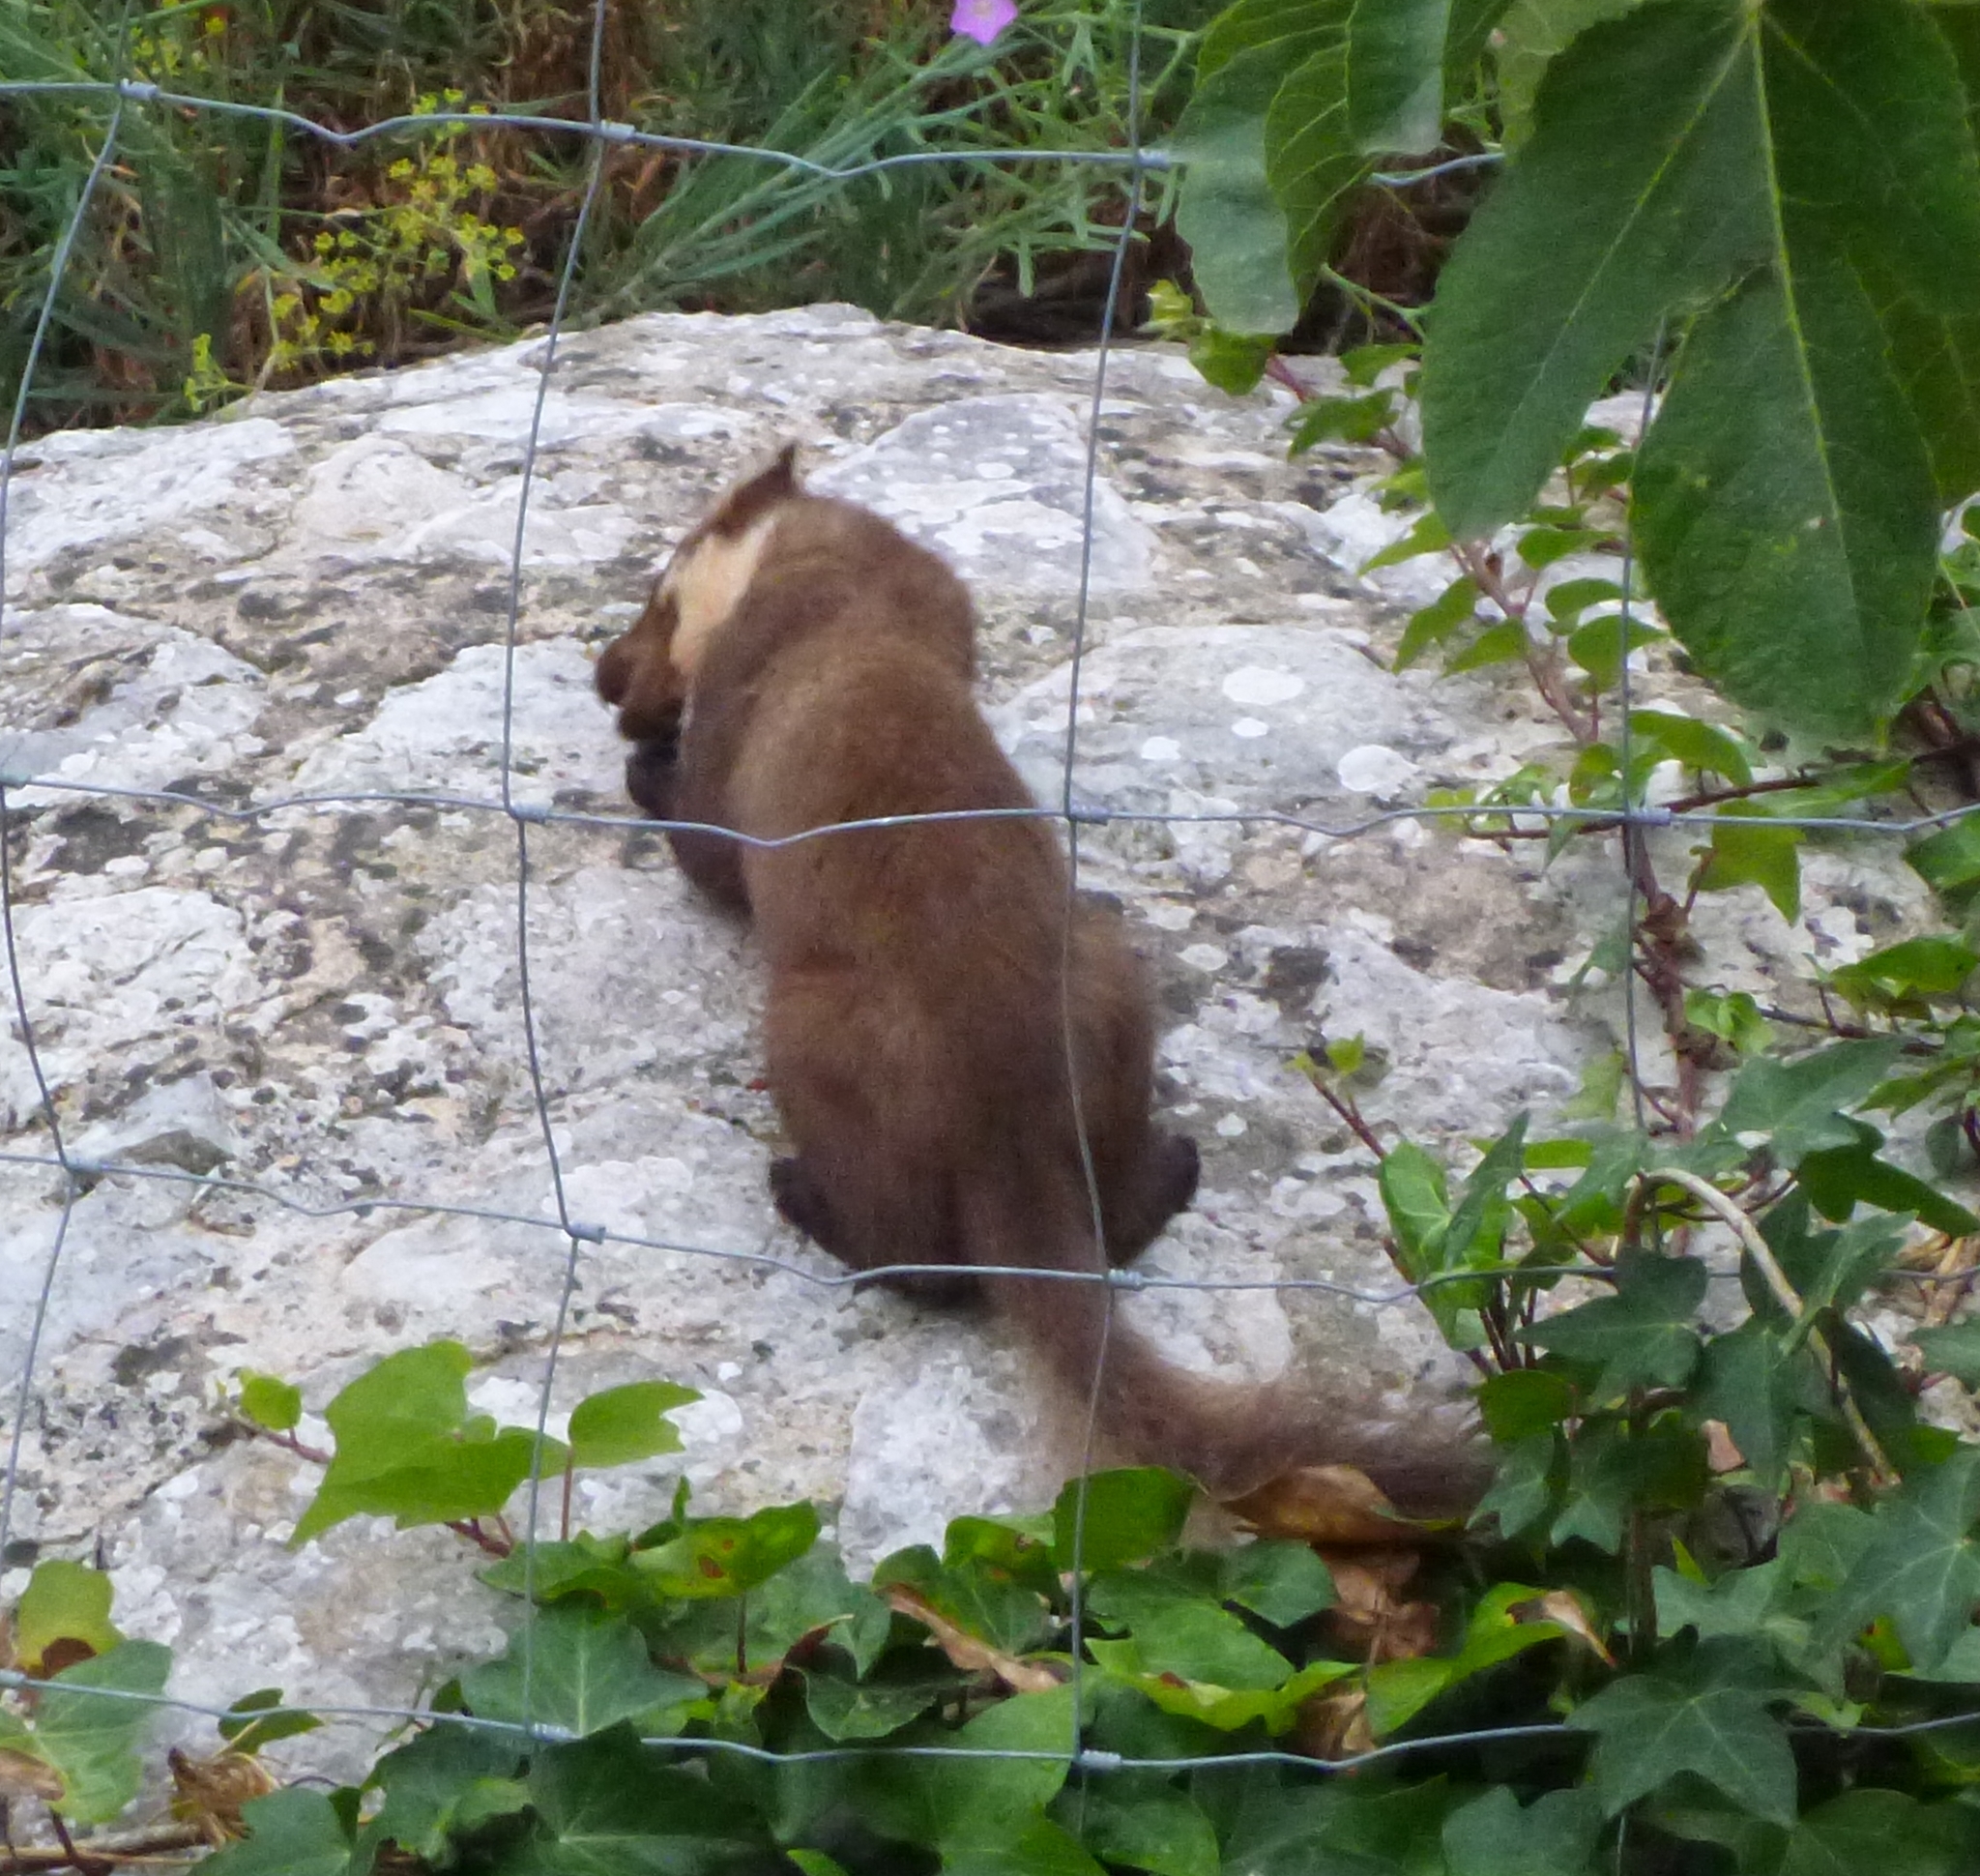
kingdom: Animalia
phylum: Chordata
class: Mammalia
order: Carnivora
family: Mustelidae
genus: Martes
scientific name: Martes martes
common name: European pine marten
